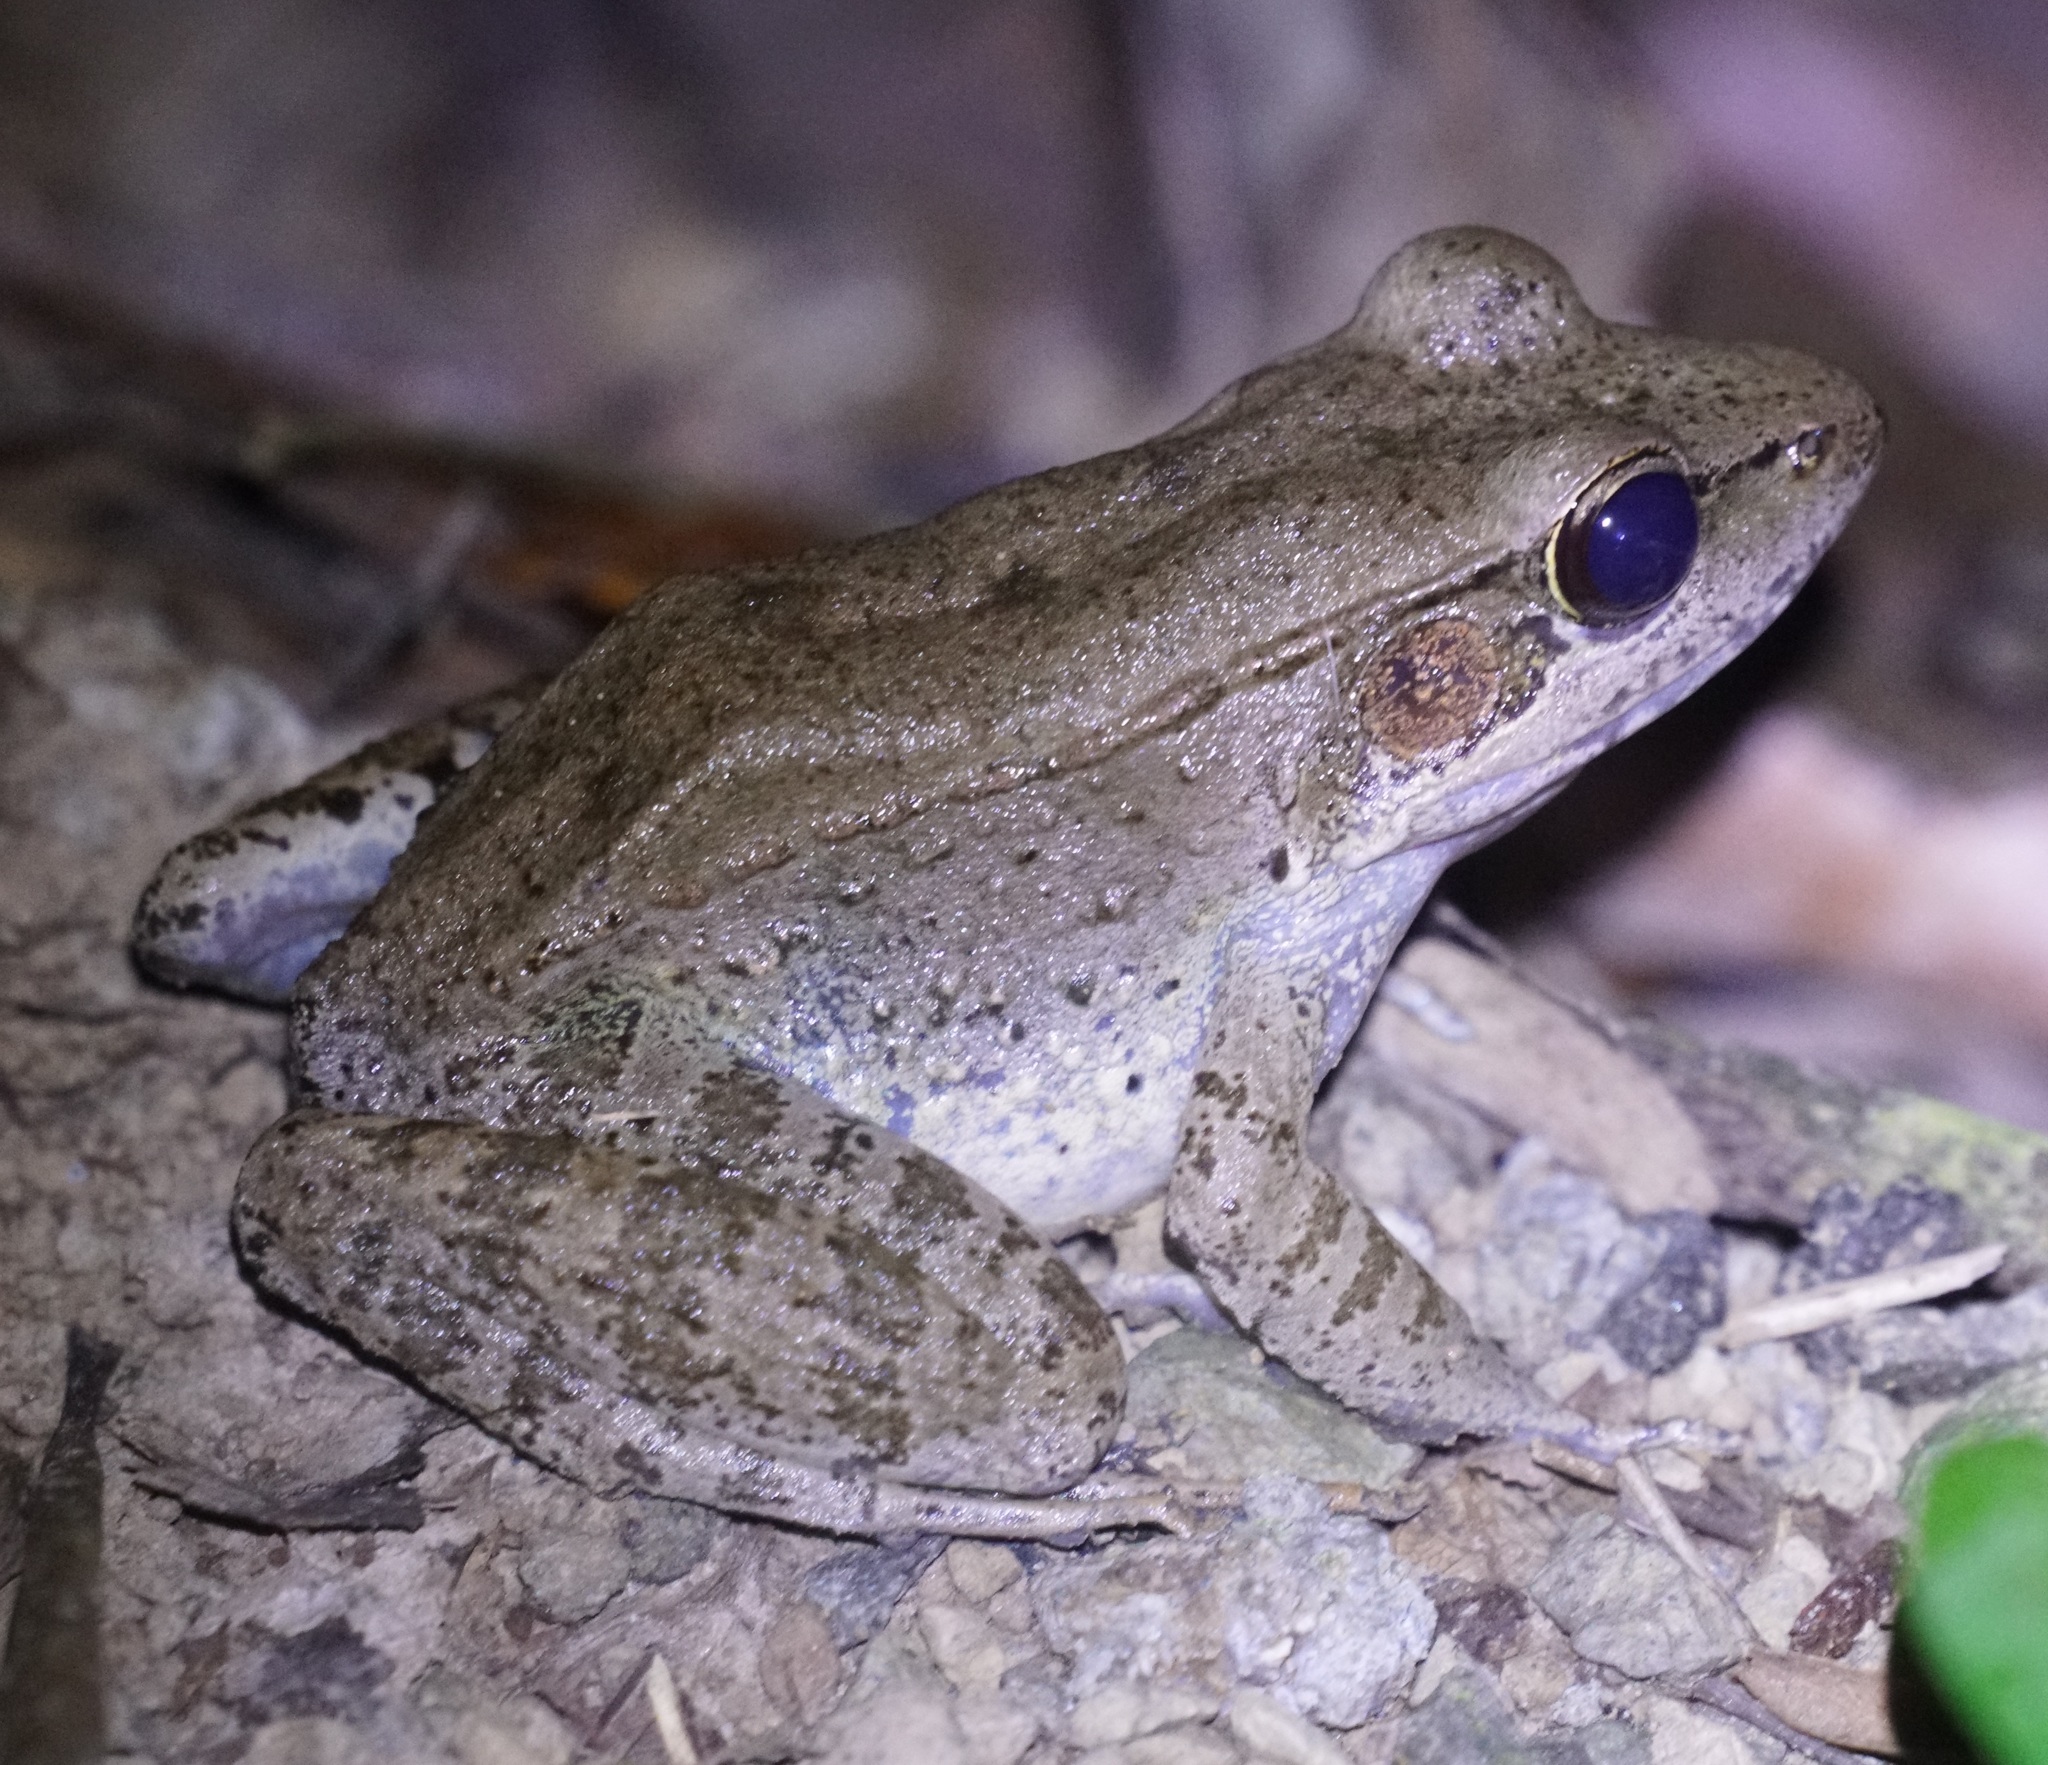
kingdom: Animalia
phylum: Chordata
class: Amphibia
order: Anura
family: Ranidae
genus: Papurana
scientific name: Papurana daemeli
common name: Arhem rana
